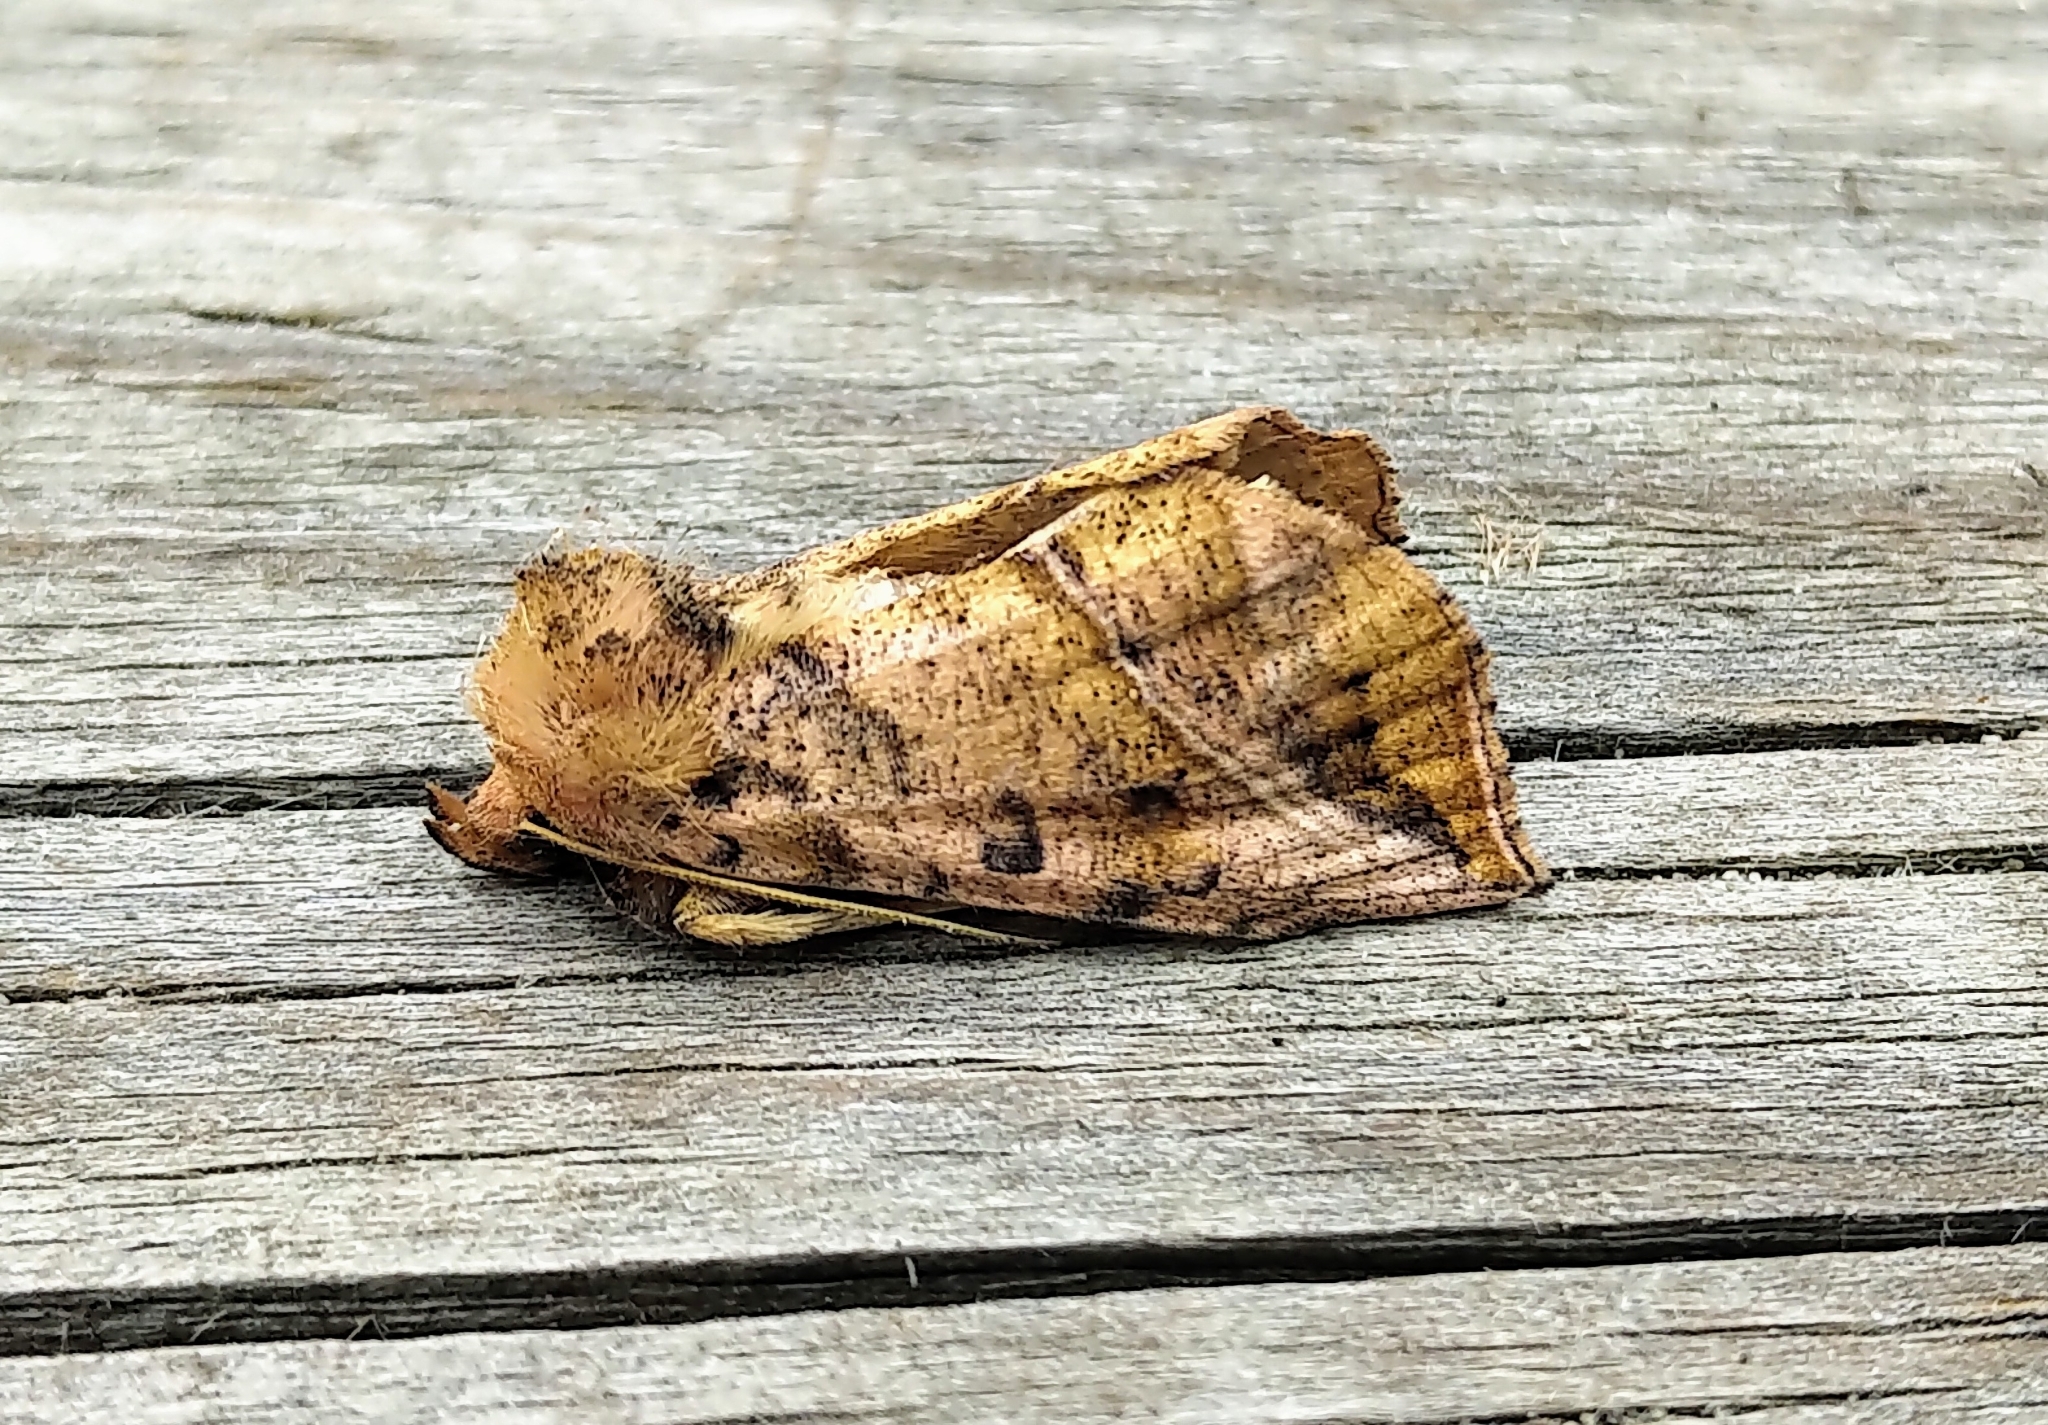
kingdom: Animalia
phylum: Arthropoda
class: Insecta
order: Lepidoptera
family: Noctuidae
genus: Pseudeva
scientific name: Pseudeva purpurigera
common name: Straight-lined looper moth
